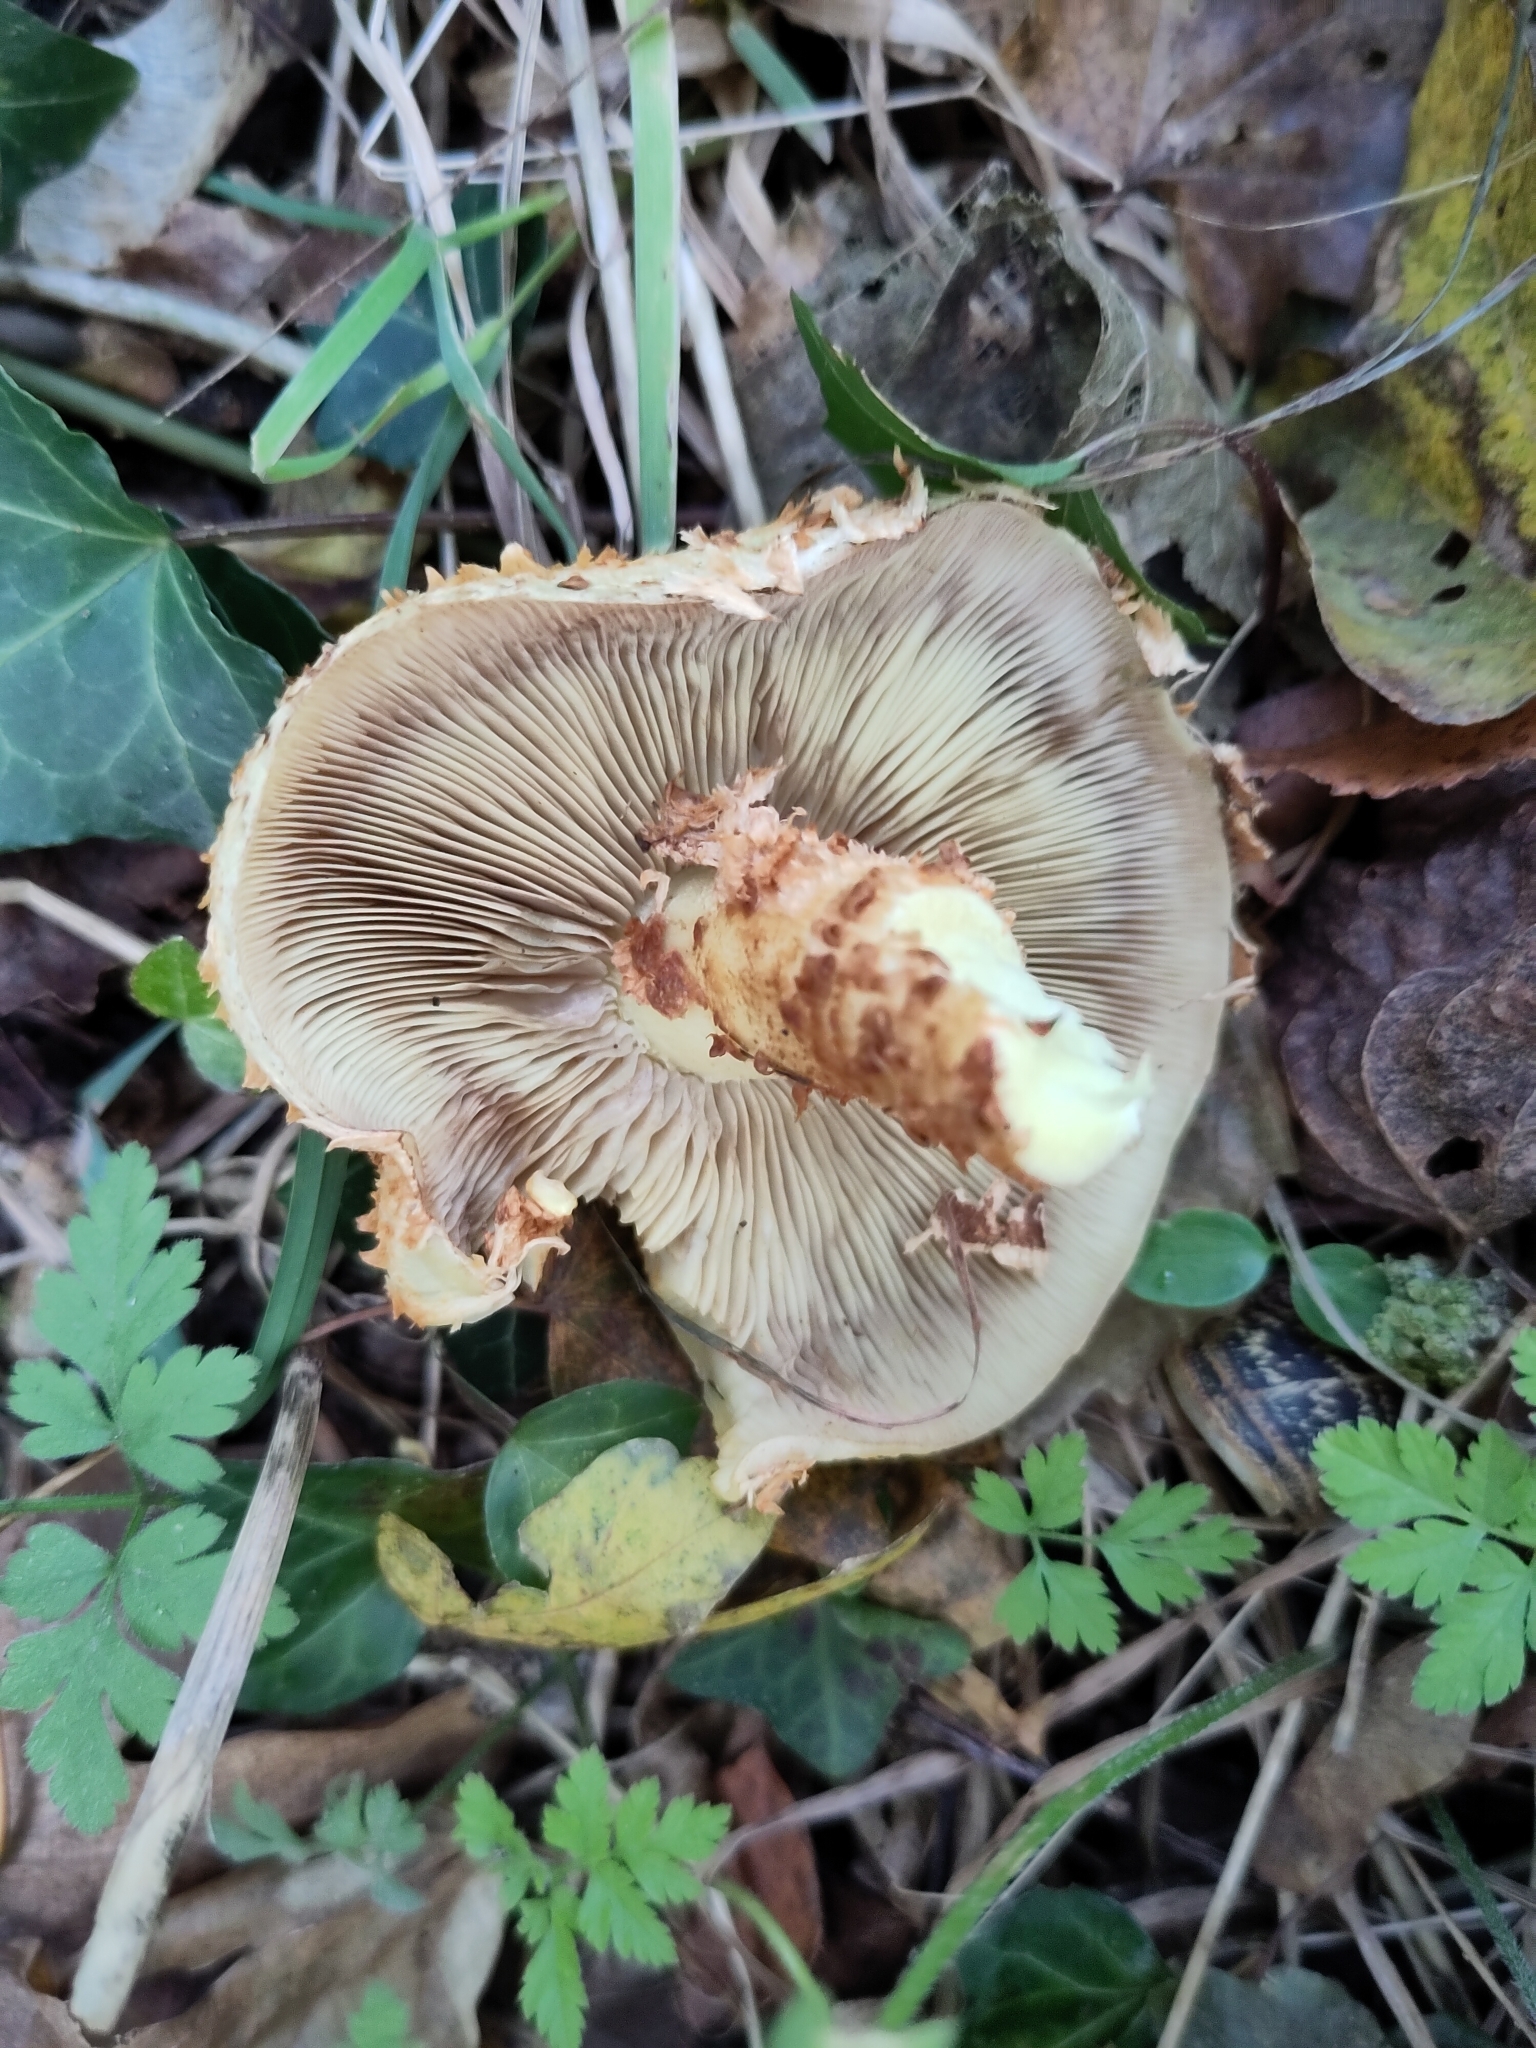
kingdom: Fungi
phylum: Basidiomycota
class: Agaricomycetes
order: Agaricales
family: Strophariaceae
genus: Pholiota
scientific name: Pholiota squarrosa
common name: Shaggy pholiota
